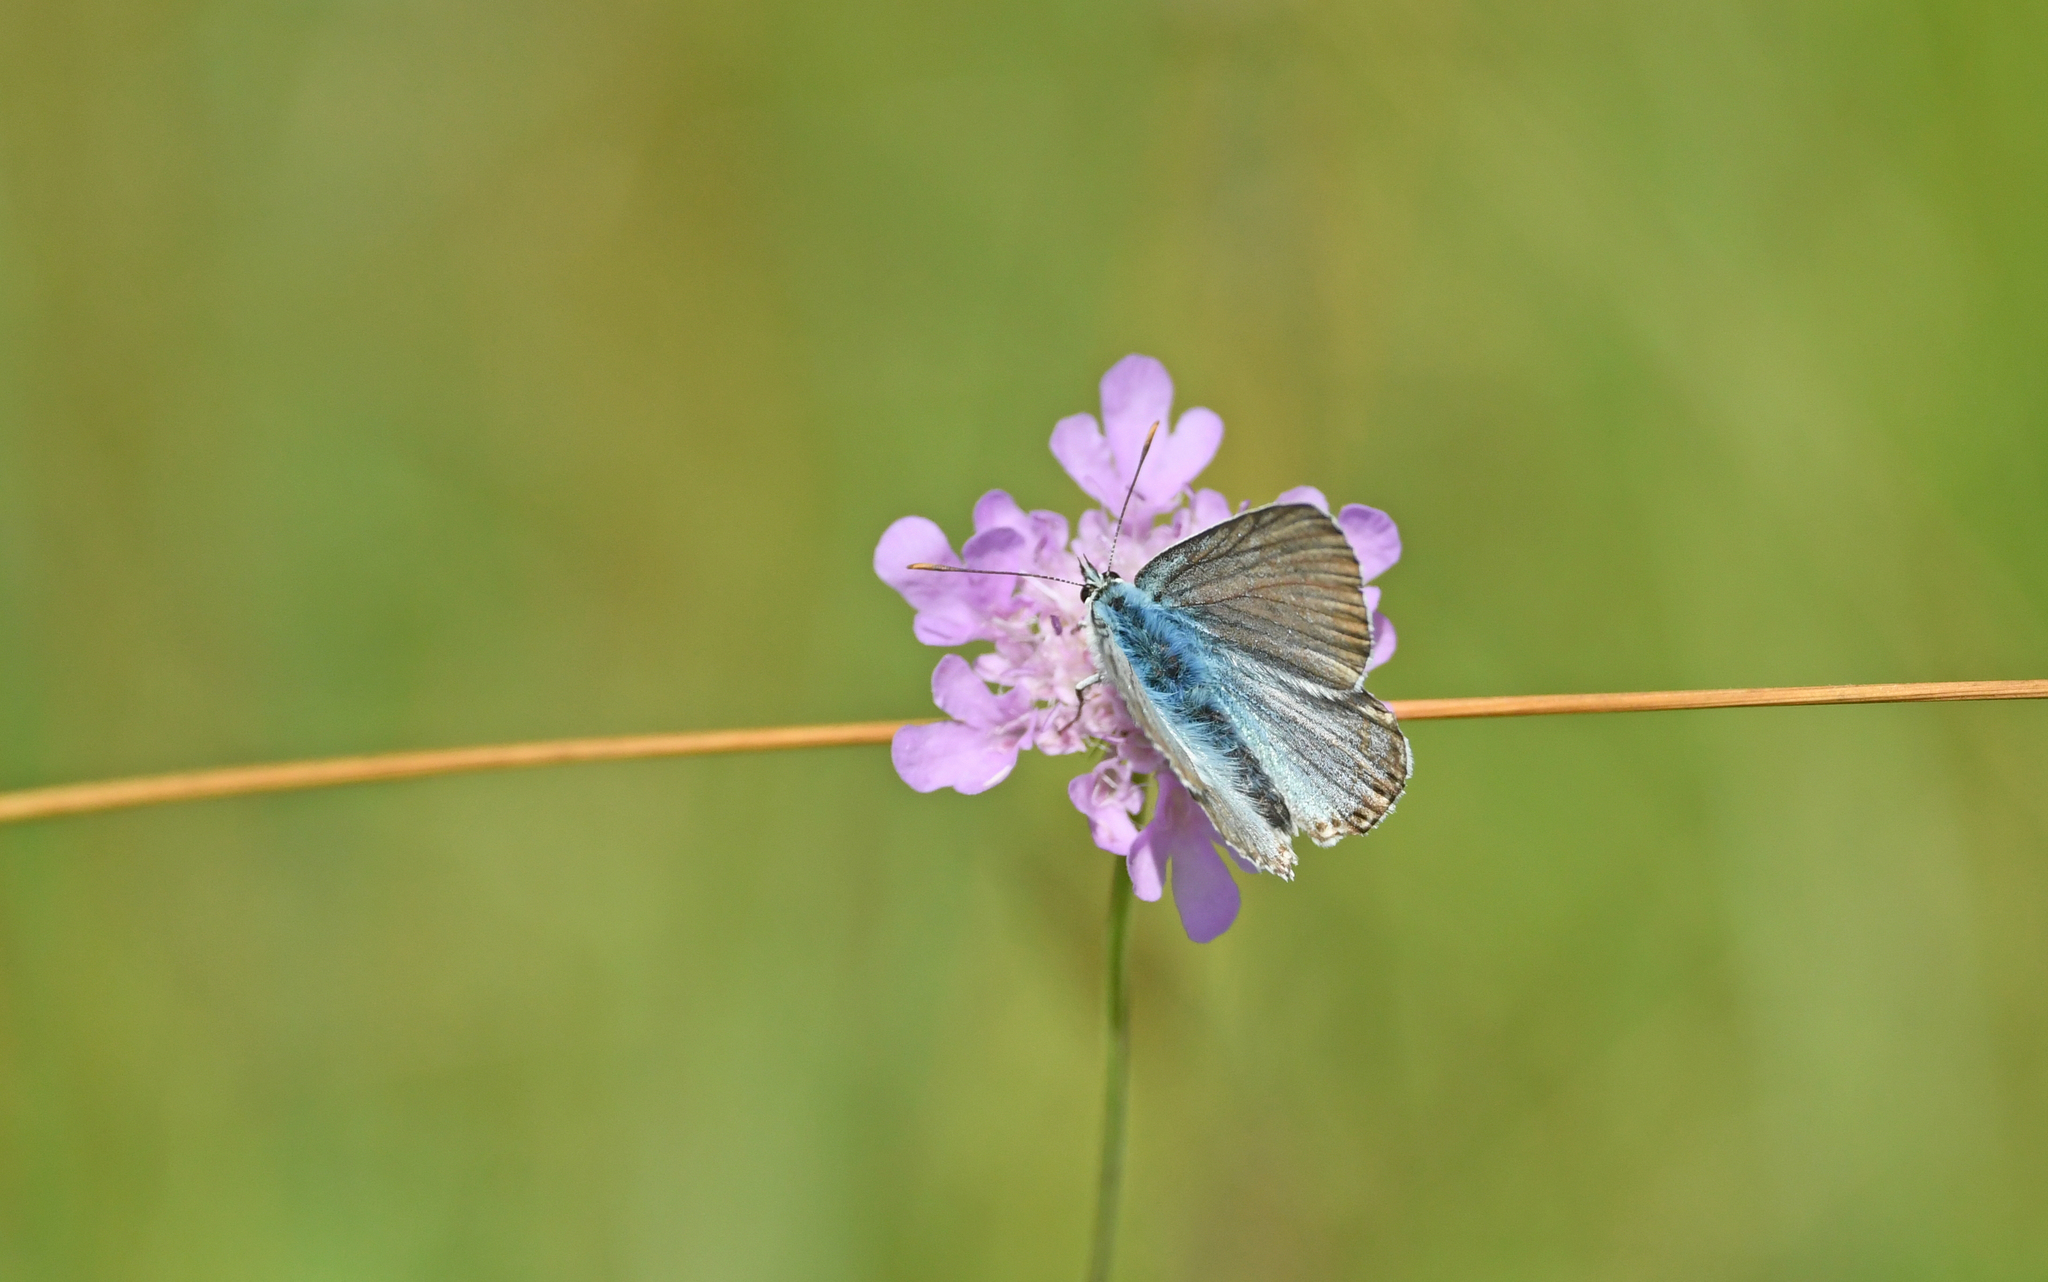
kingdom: Animalia
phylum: Arthropoda
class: Insecta
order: Lepidoptera
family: Lycaenidae
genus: Lysandra
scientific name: Lysandra coridon
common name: Chalkhill blue
